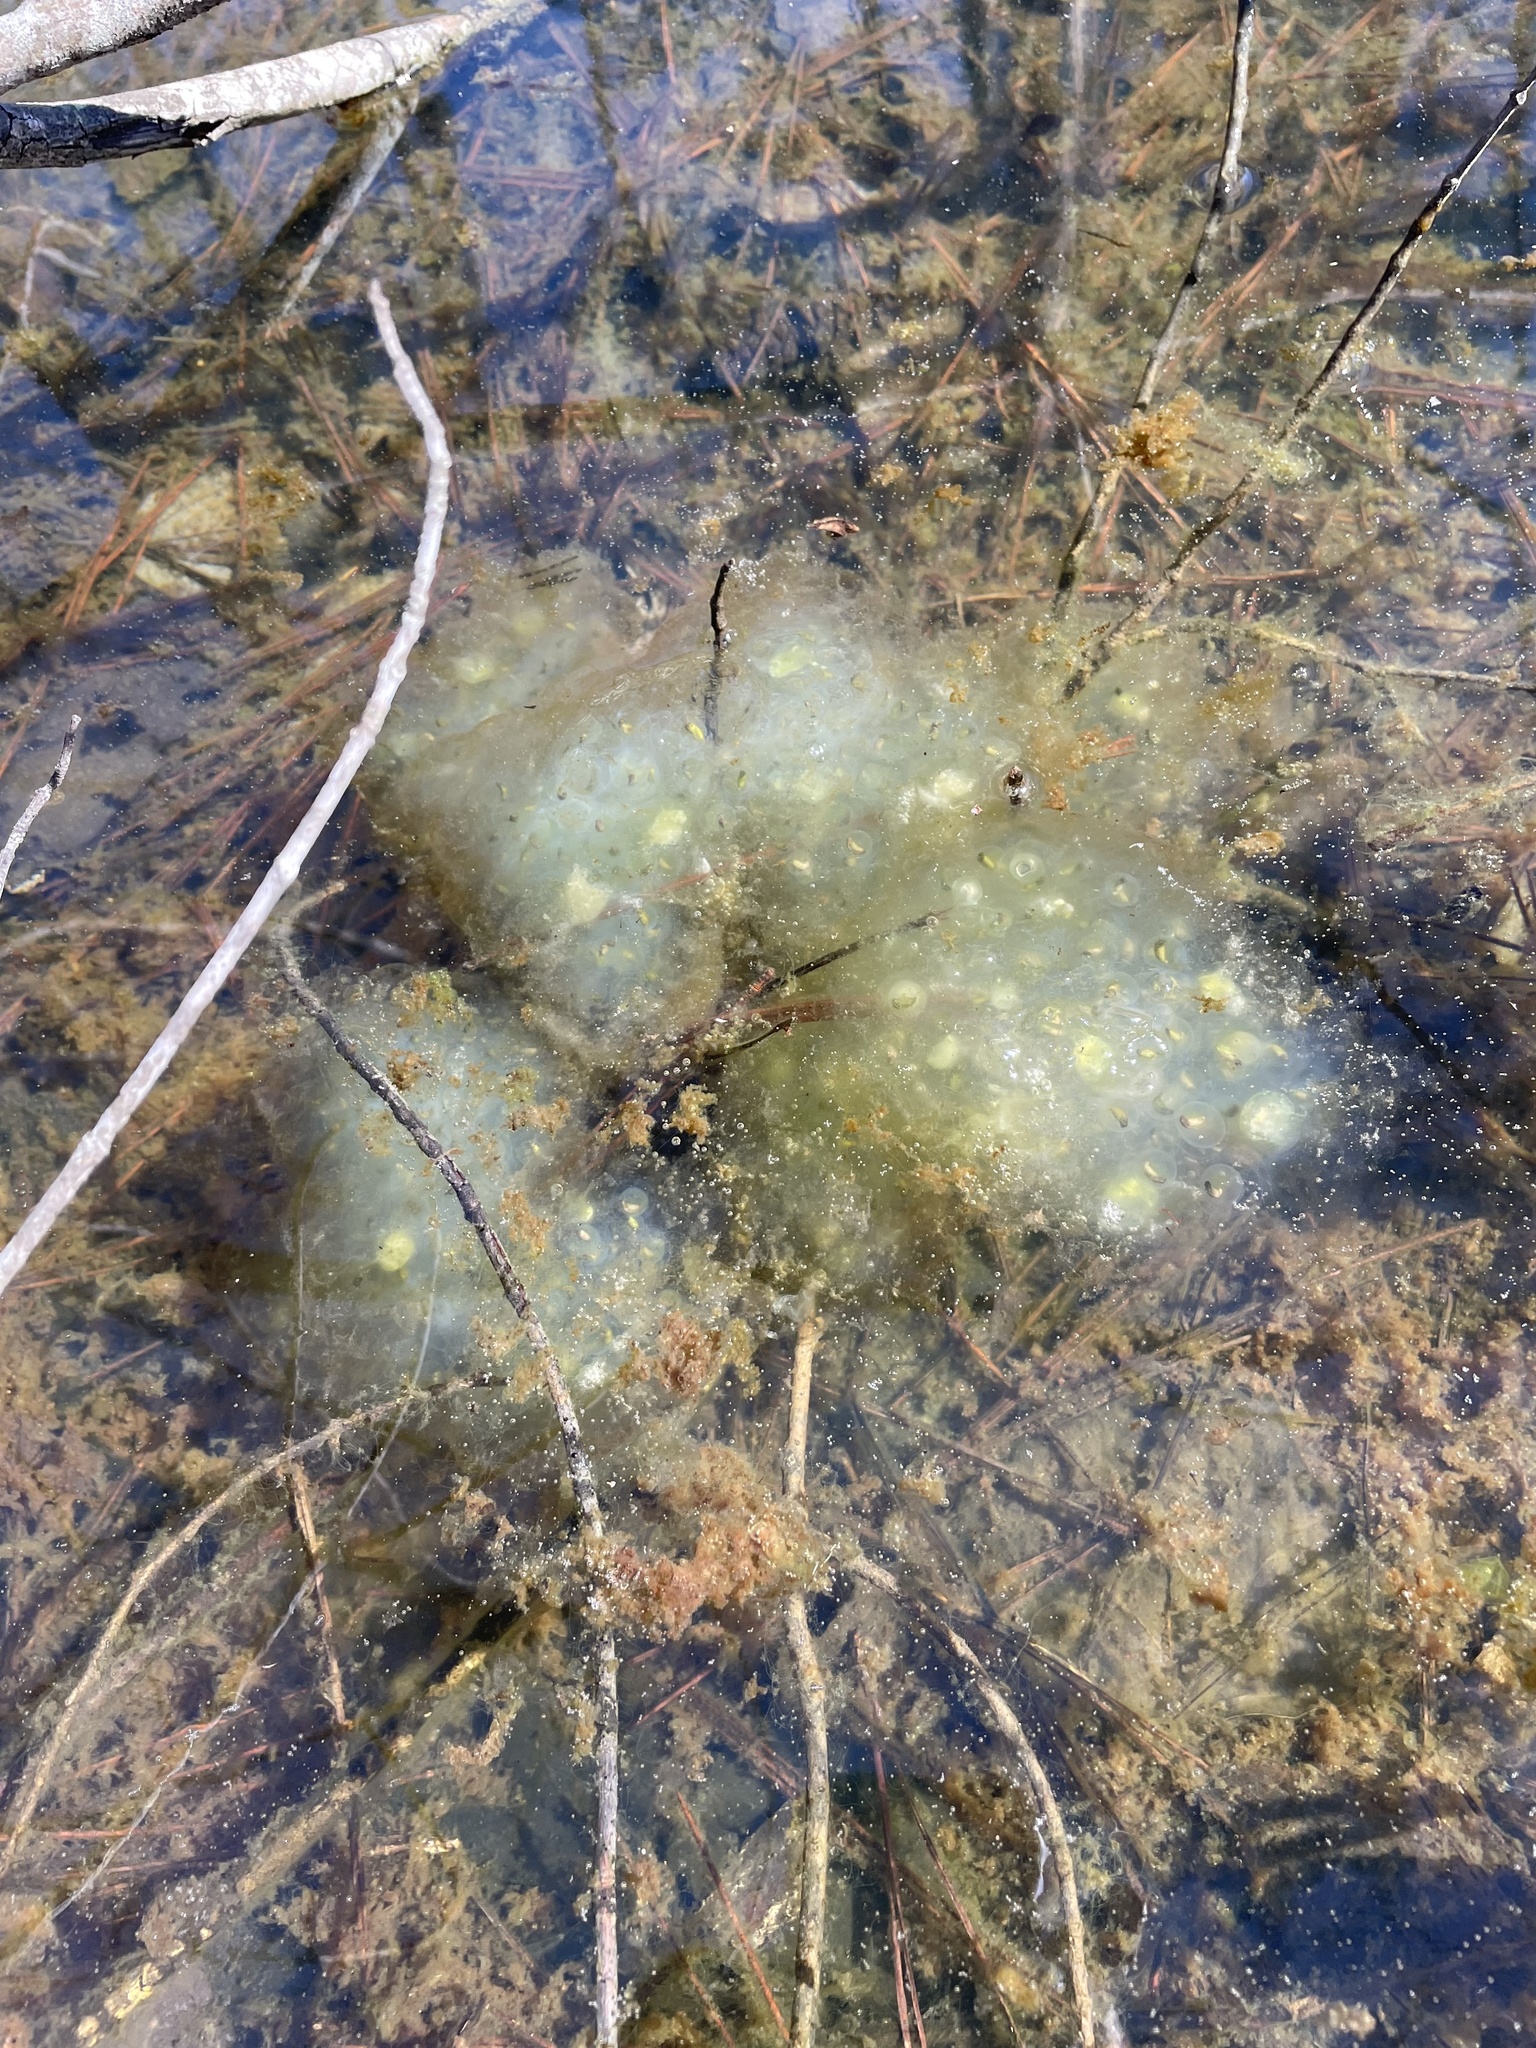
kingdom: Animalia
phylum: Chordata
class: Amphibia
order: Caudata
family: Ambystomatidae
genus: Ambystoma
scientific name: Ambystoma maculatum
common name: Spotted salamander
